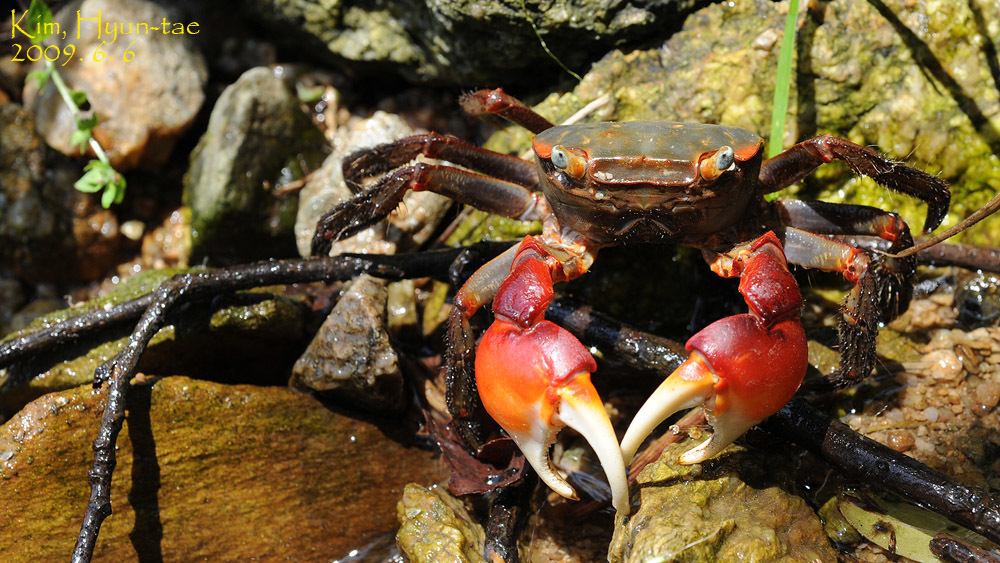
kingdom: Animalia
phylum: Arthropoda
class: Malacostraca
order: Decapoda
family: Sesarmidae
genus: Chiromantes
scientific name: Chiromantes haematocheir
